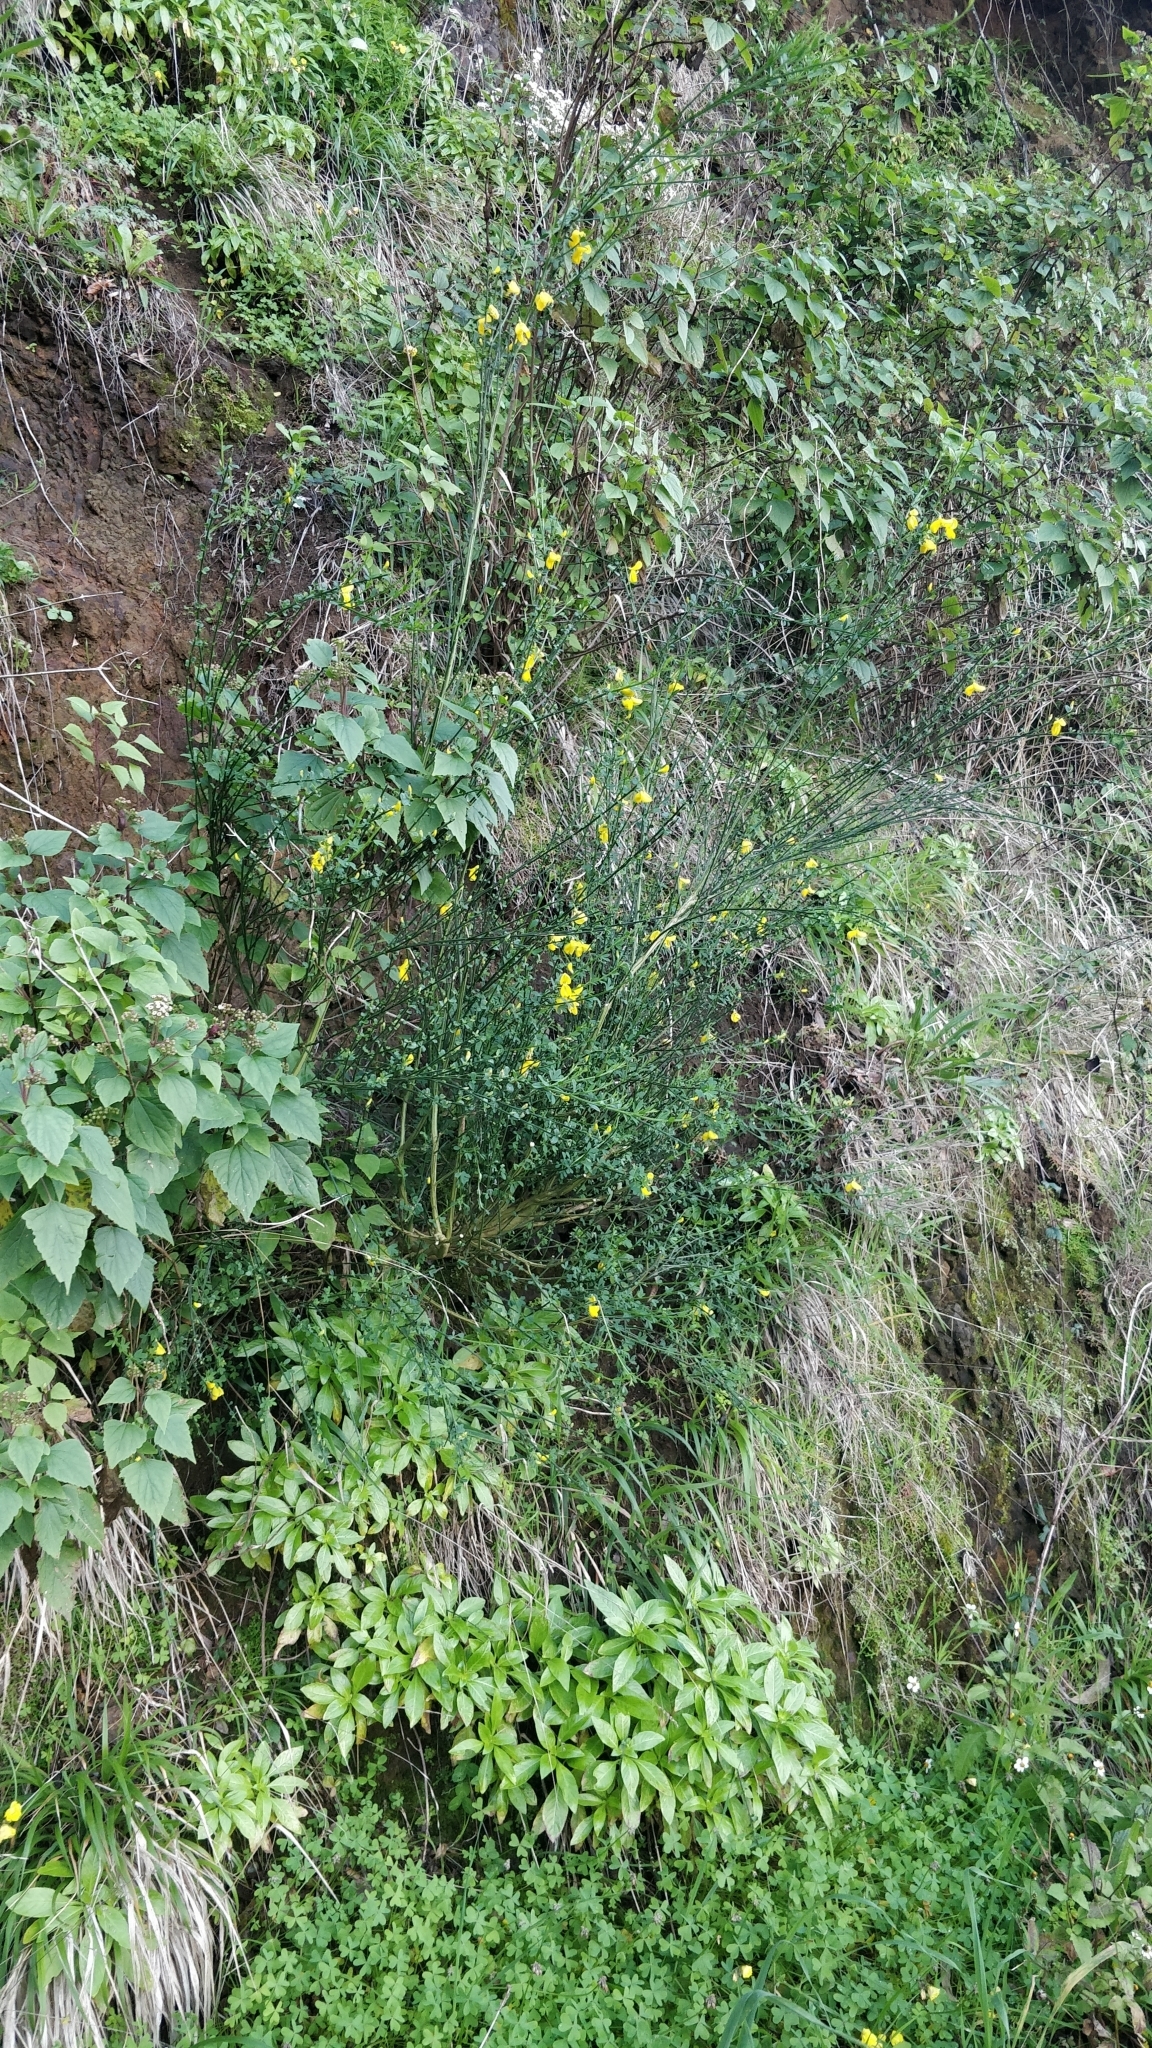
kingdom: Plantae
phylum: Tracheophyta
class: Magnoliopsida
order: Fabales
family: Fabaceae
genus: Genista
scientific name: Genista maderensis
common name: Madeira dyer's greenweed
